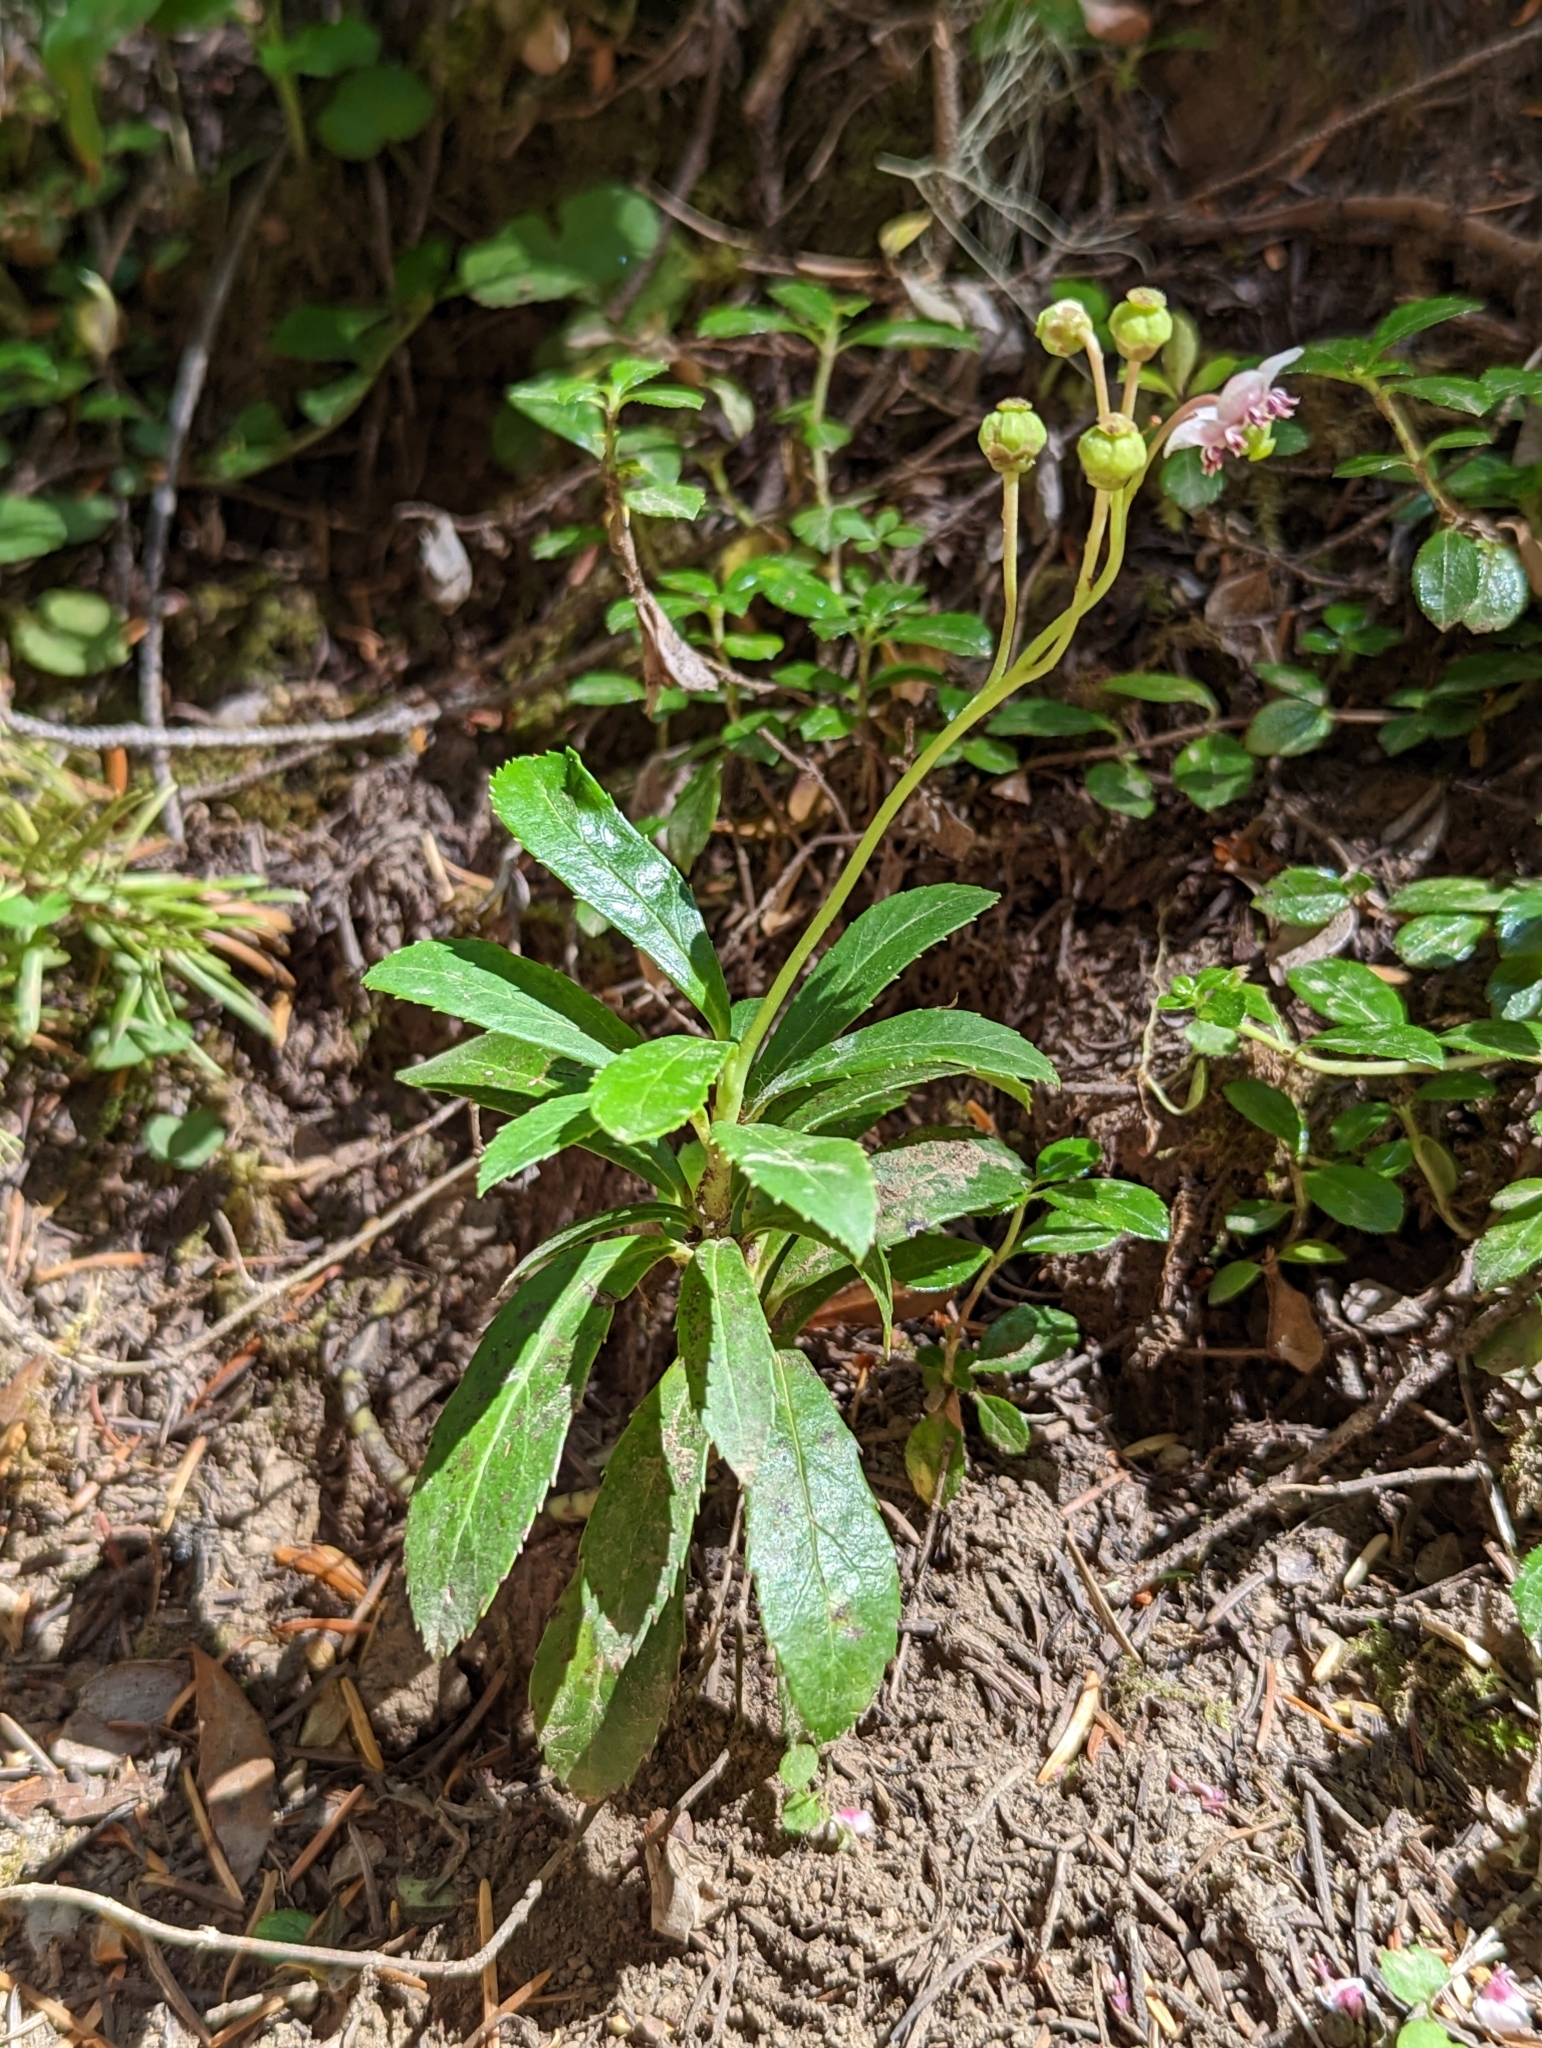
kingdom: Plantae
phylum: Tracheophyta
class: Magnoliopsida
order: Ericales
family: Ericaceae
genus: Chimaphila
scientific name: Chimaphila umbellata
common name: Pipsissewa
